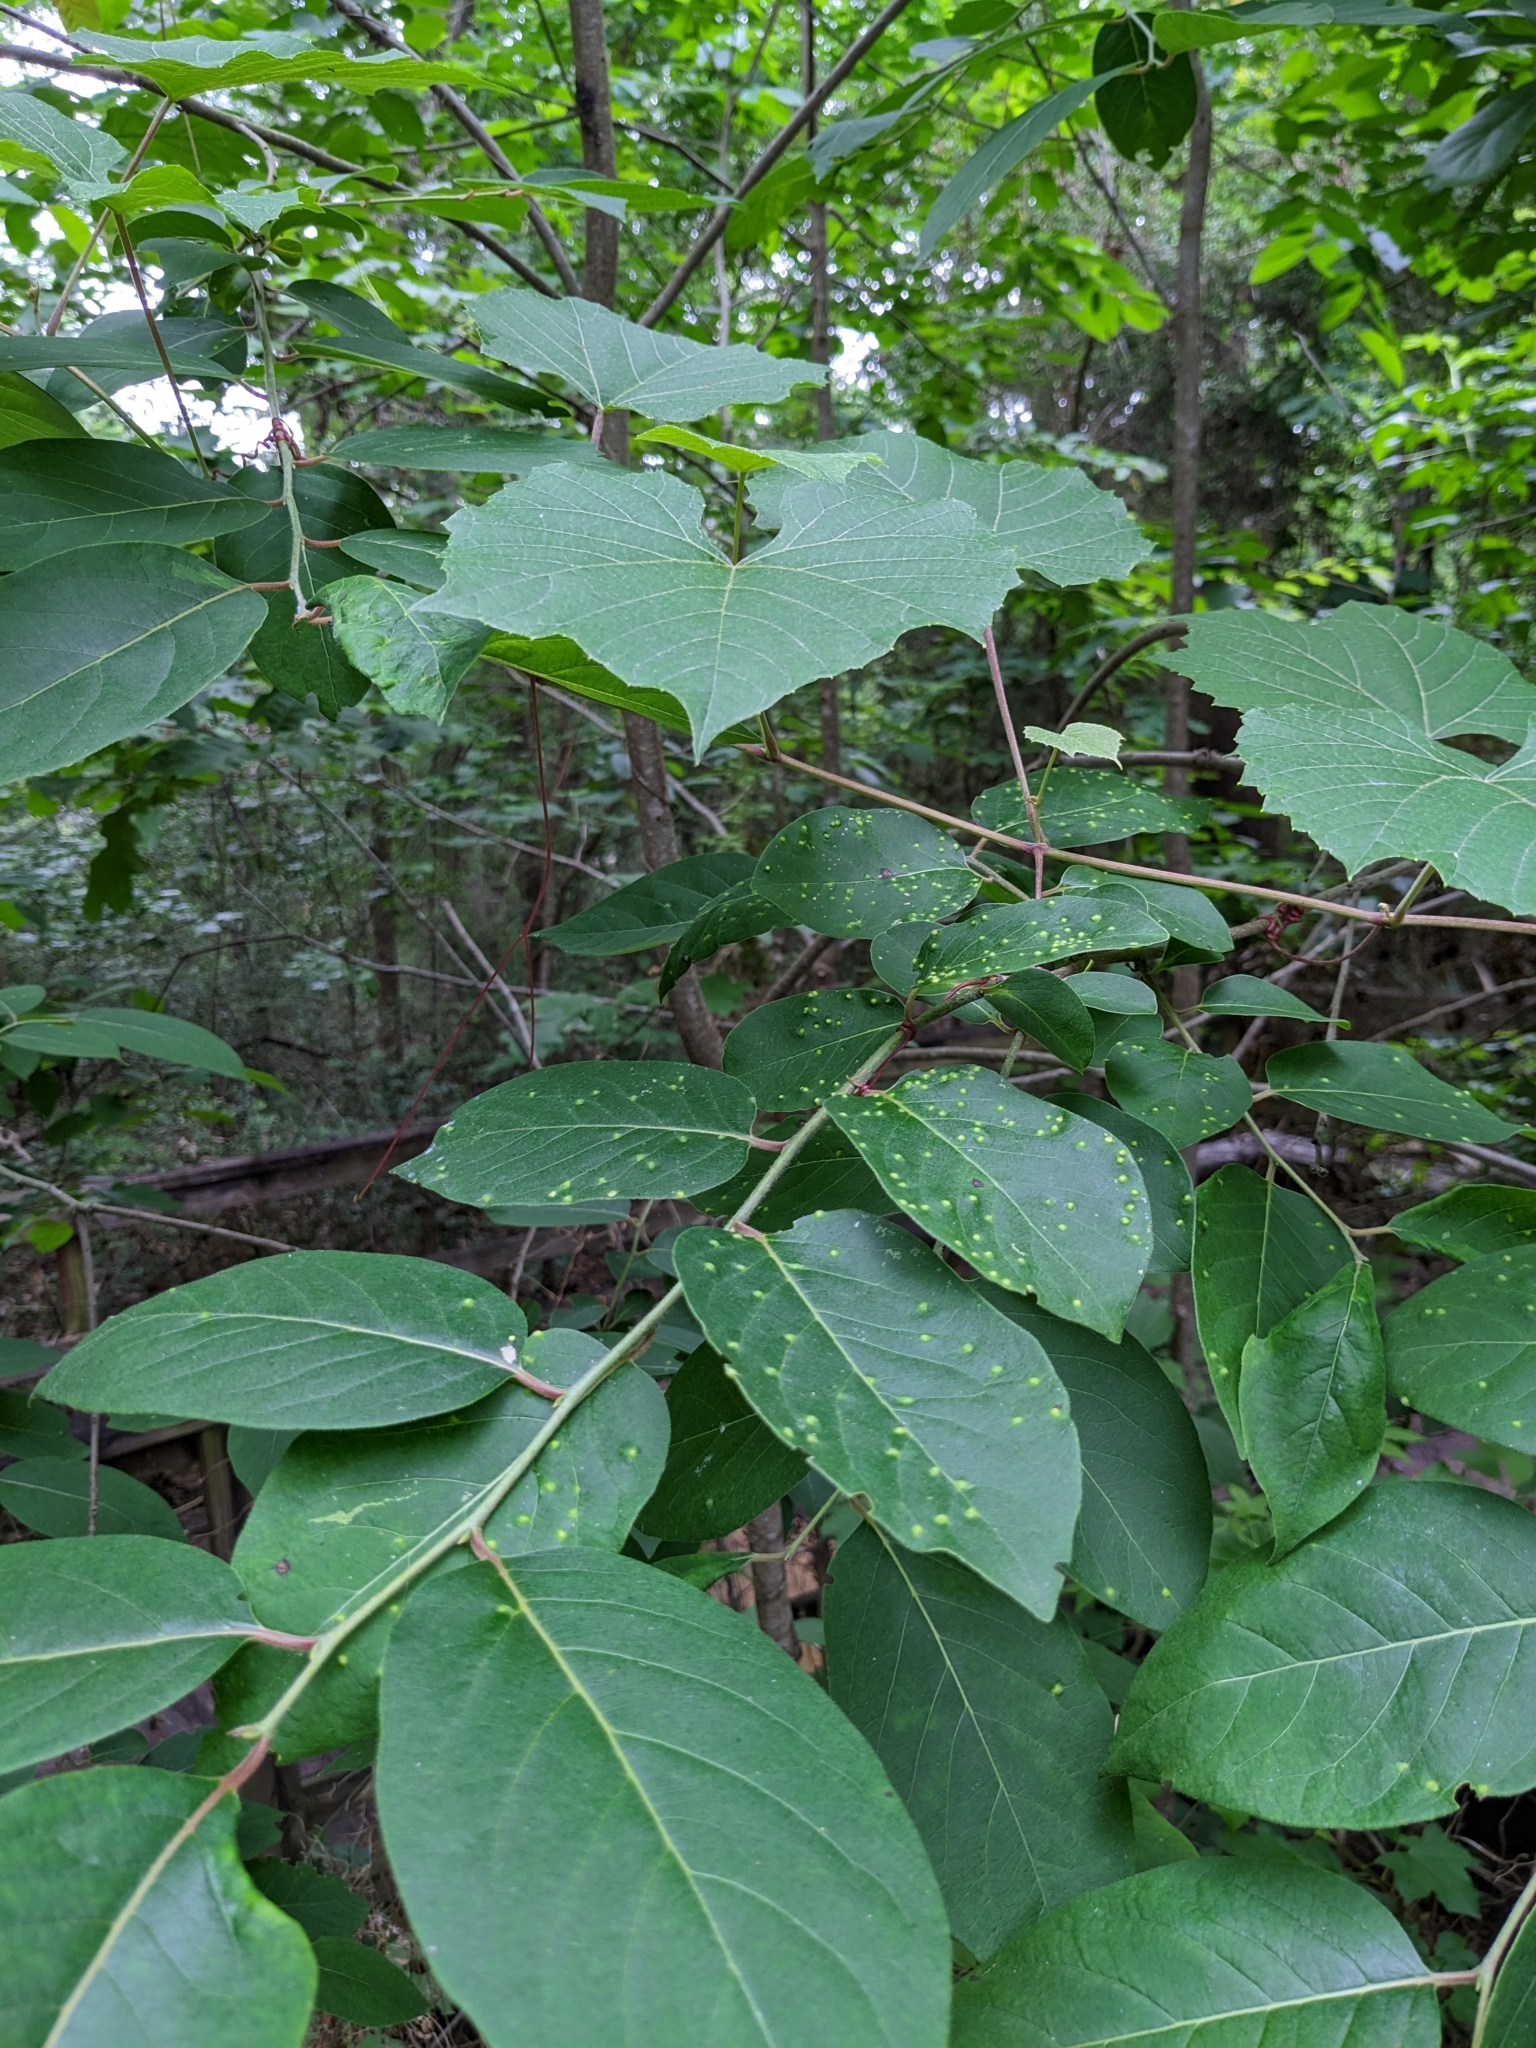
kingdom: Plantae
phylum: Tracheophyta
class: Magnoliopsida
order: Ericales
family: Ebenaceae
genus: Diospyros
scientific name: Diospyros virginiana
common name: Persimmon
